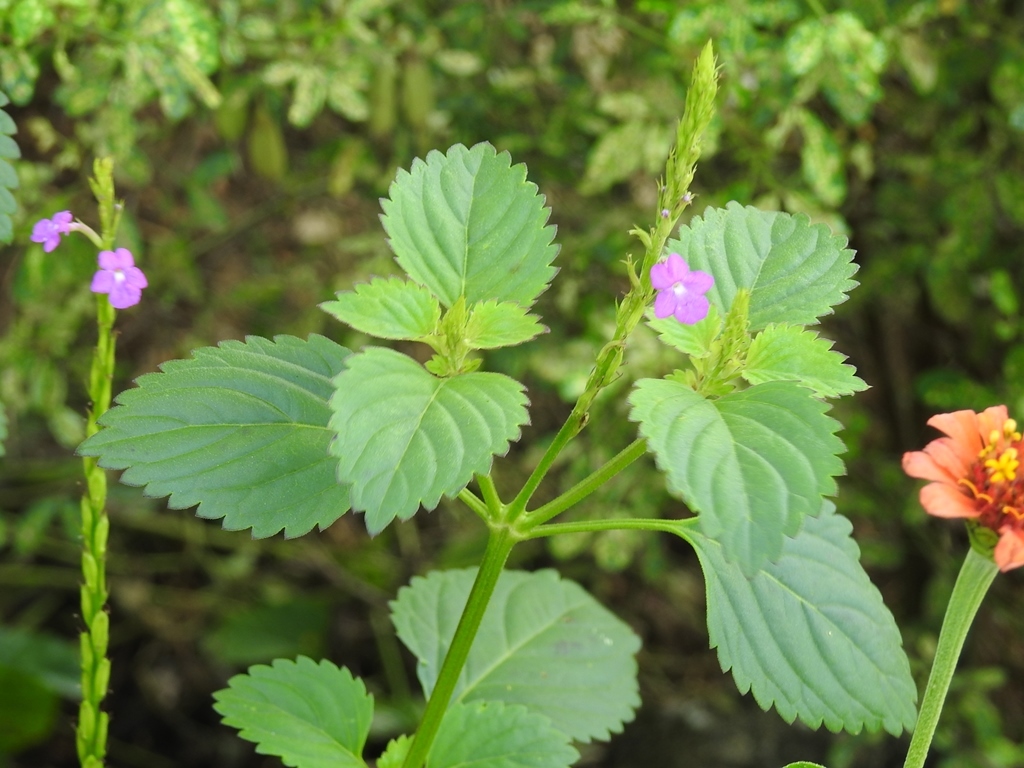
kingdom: Plantae
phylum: Tracheophyta
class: Magnoliopsida
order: Lamiales
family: Verbenaceae
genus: Bouchea
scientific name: Bouchea prismatica
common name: Vervine
